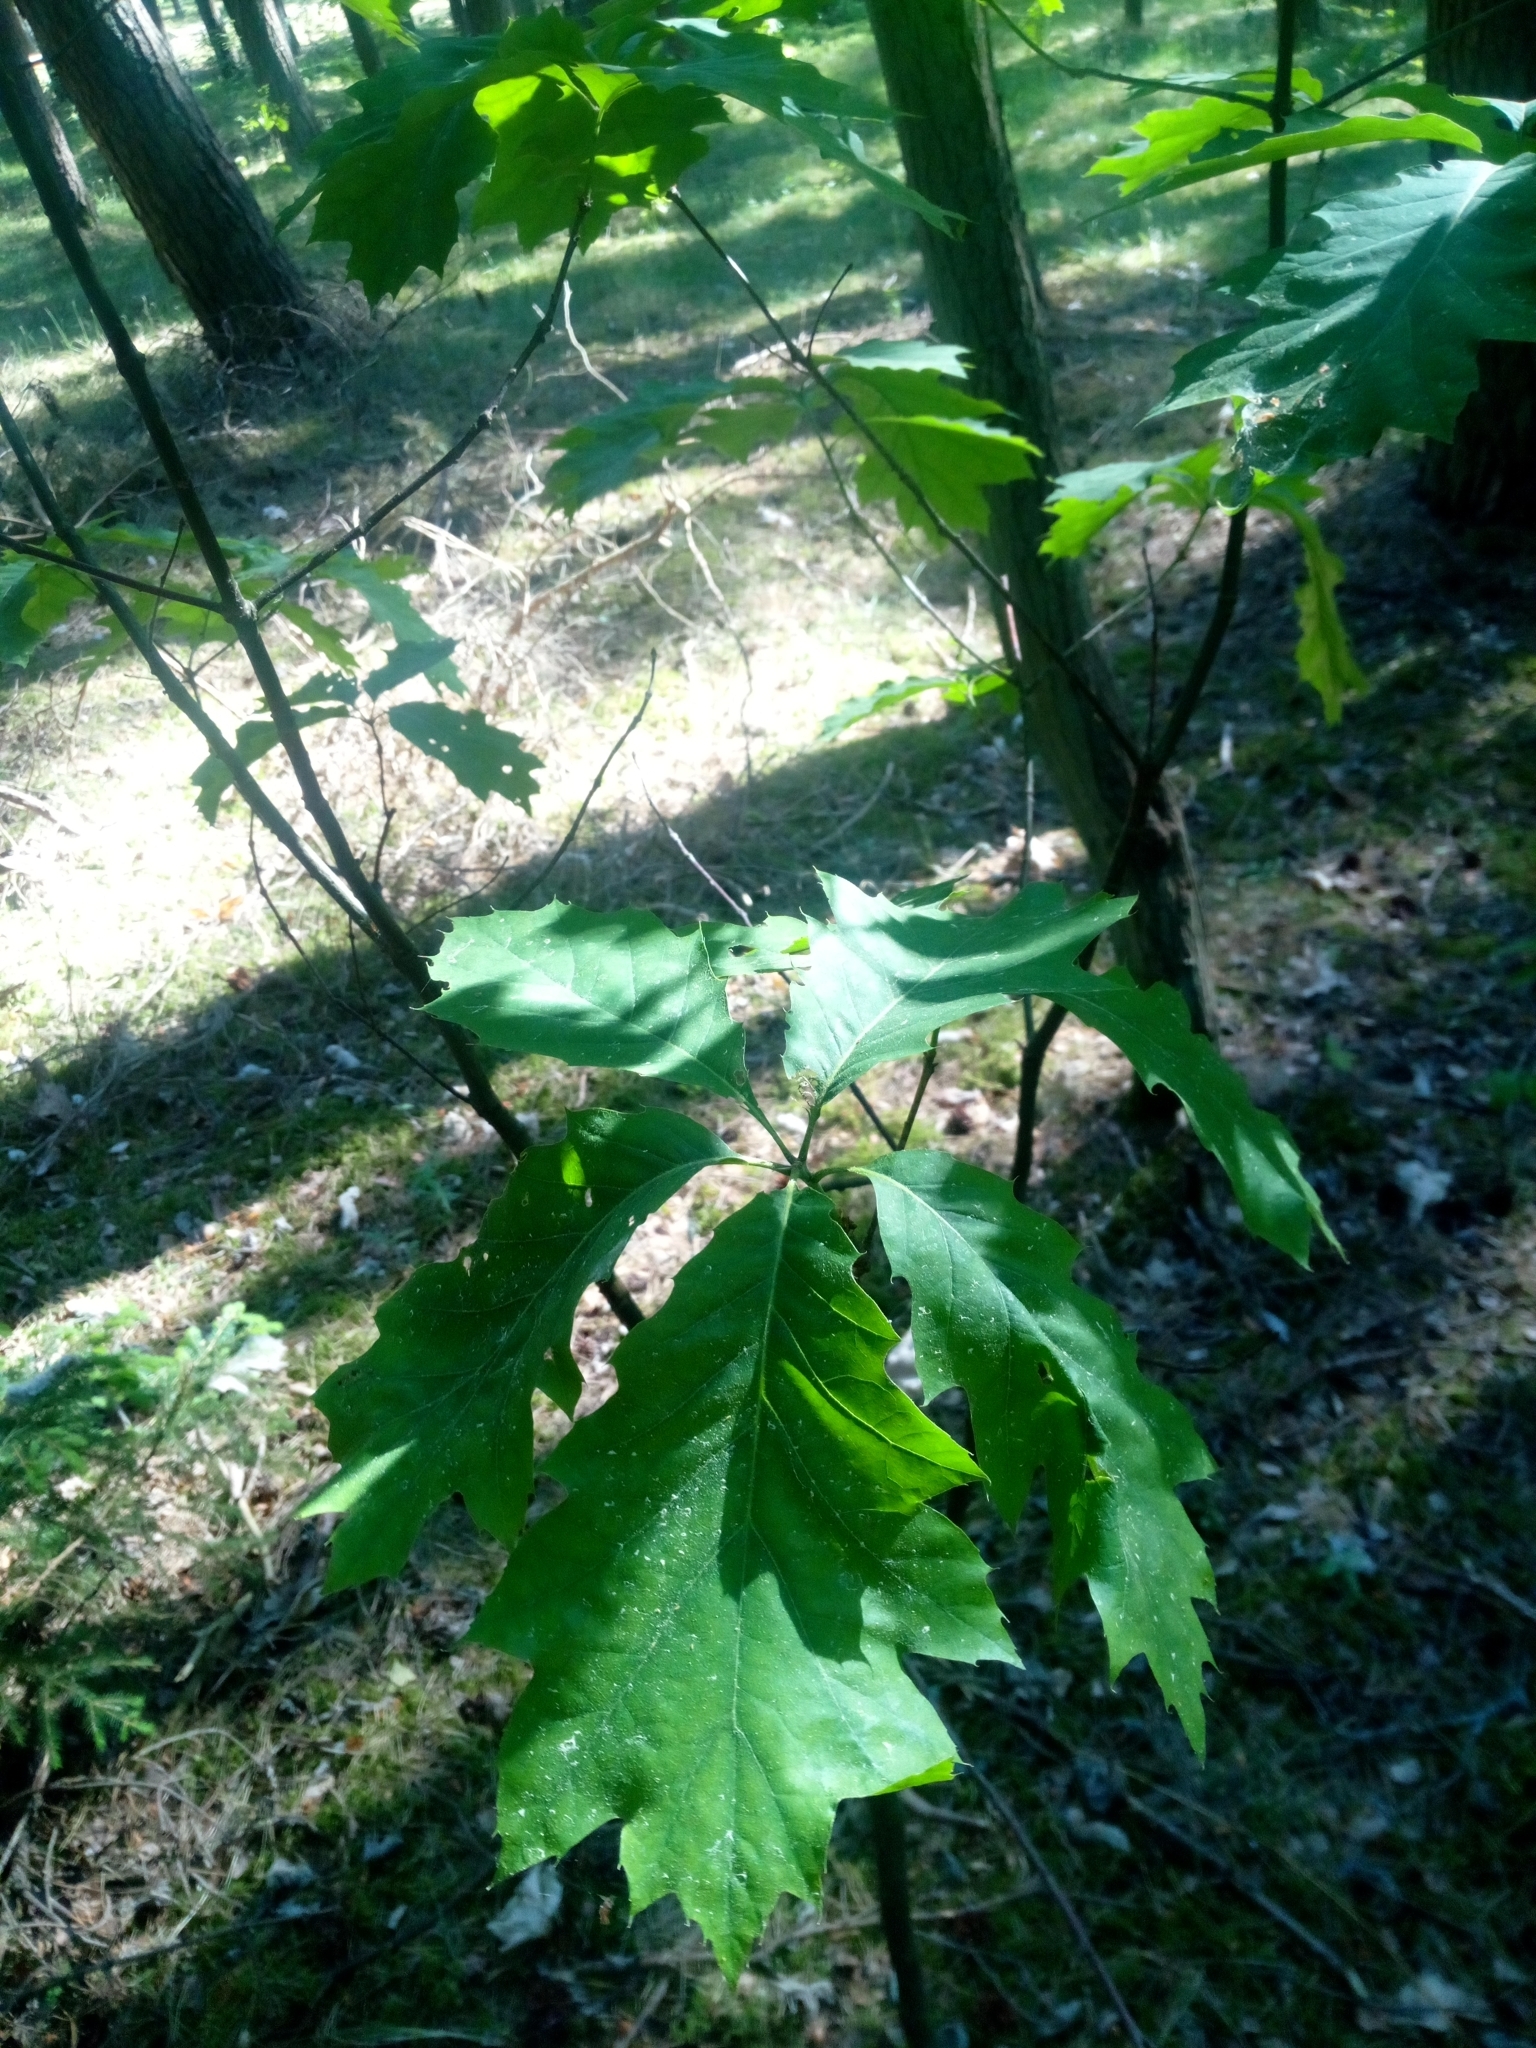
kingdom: Plantae
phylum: Tracheophyta
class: Magnoliopsida
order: Fagales
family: Fagaceae
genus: Quercus
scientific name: Quercus rubra
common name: Red oak
